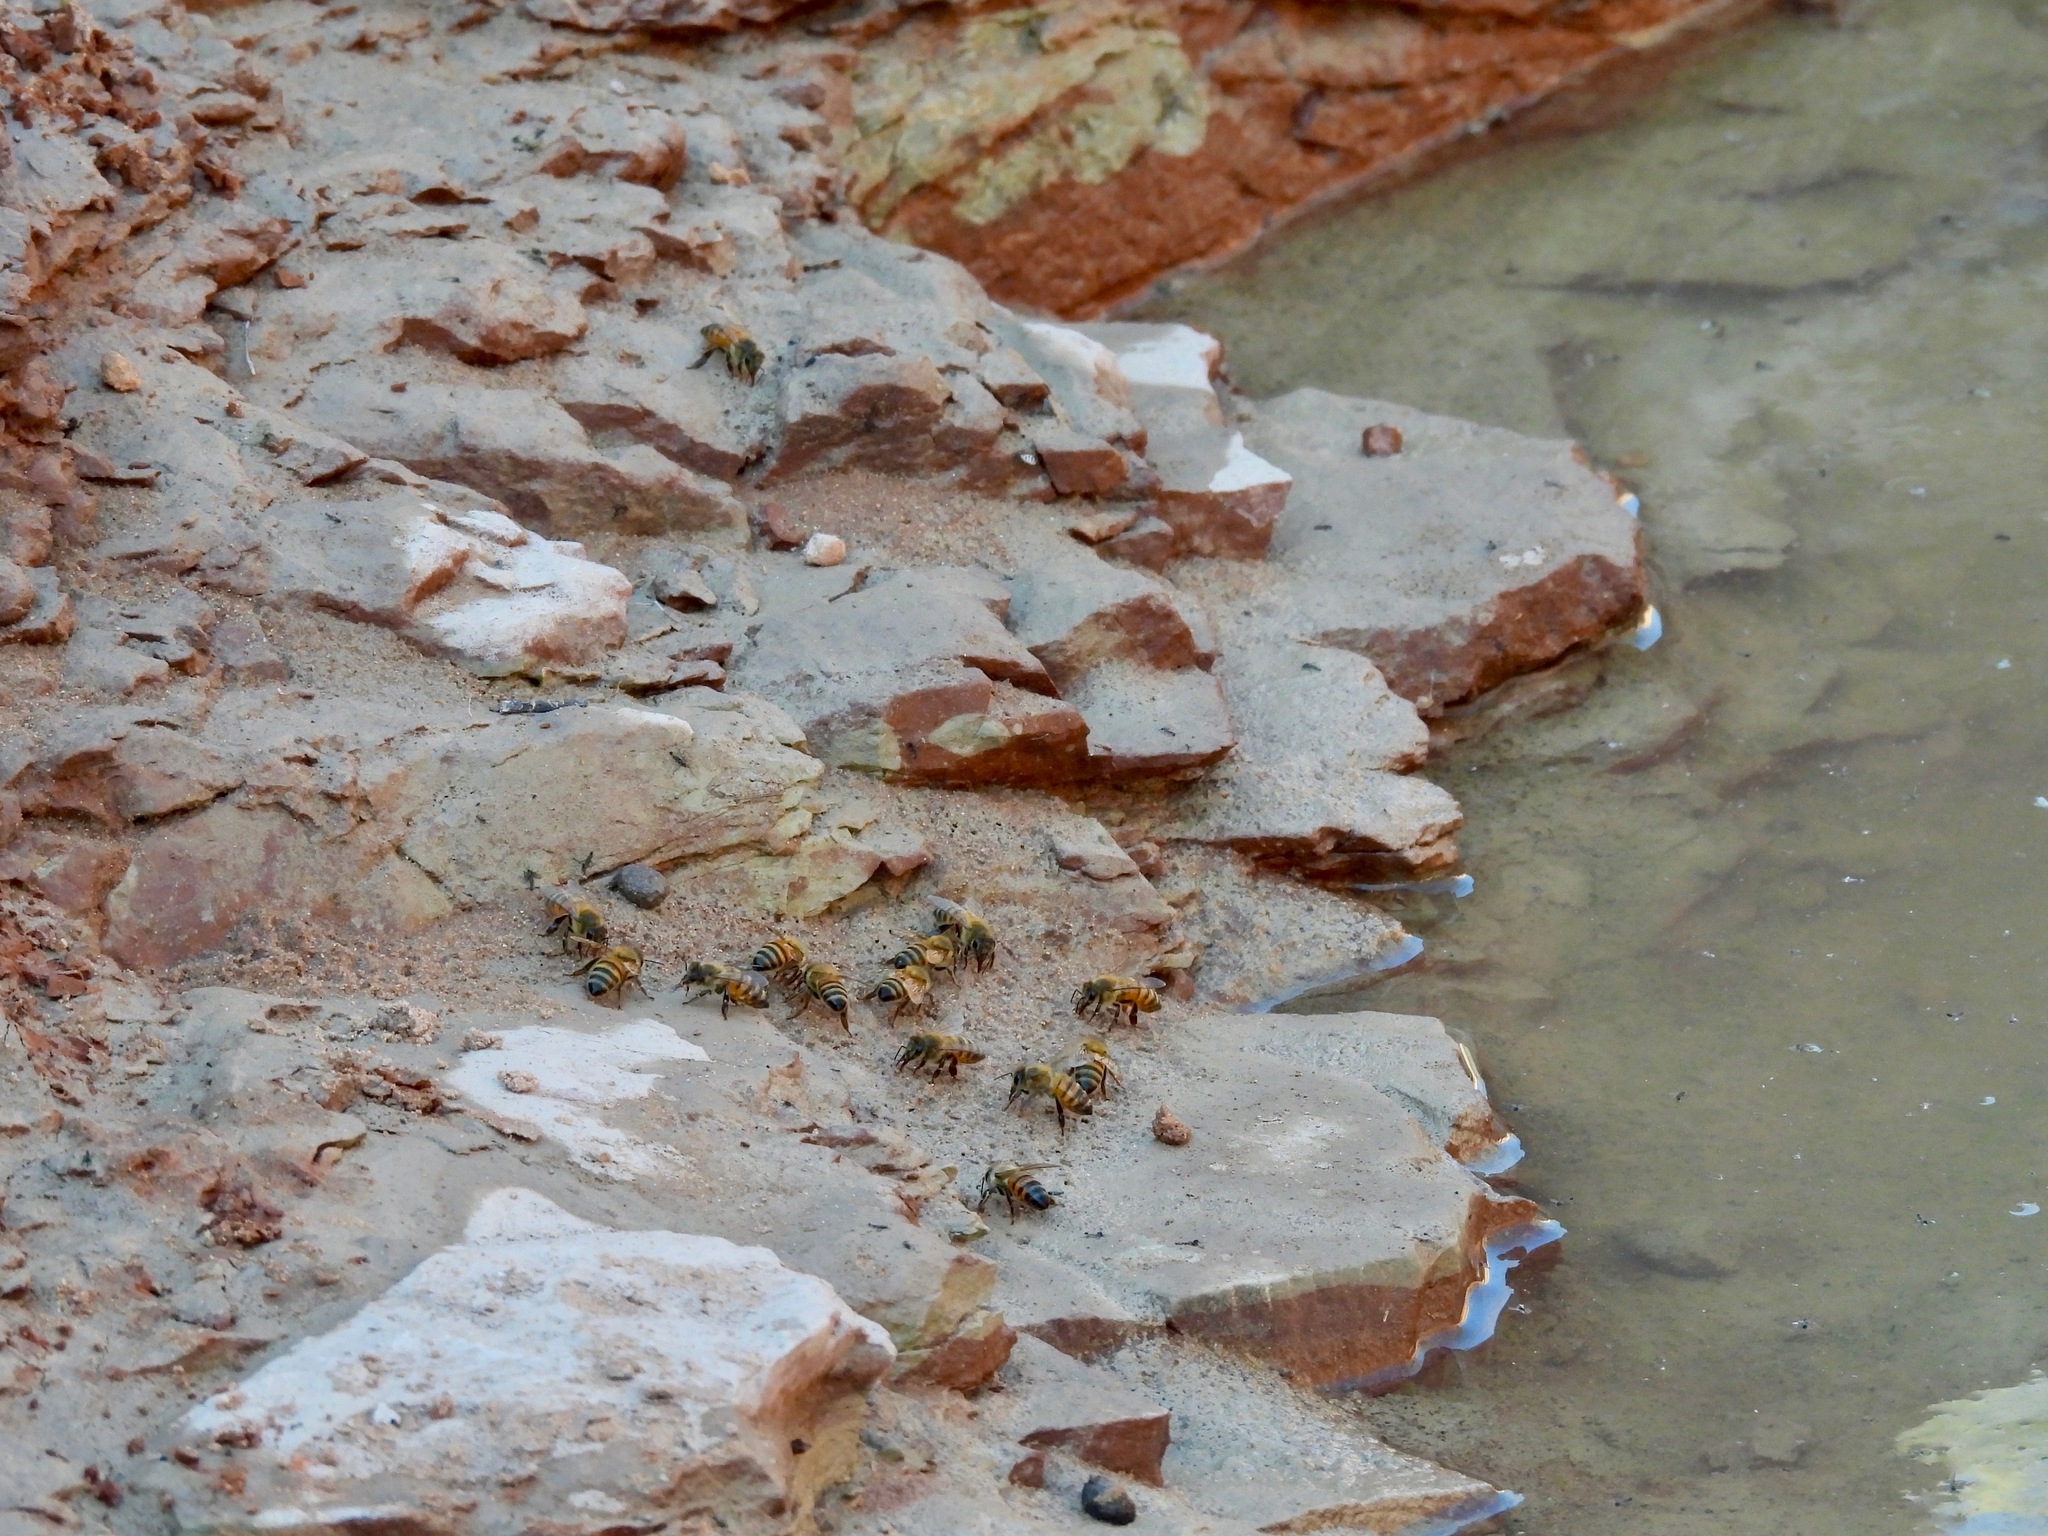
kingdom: Animalia
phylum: Arthropoda
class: Insecta
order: Hymenoptera
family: Apidae
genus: Apis
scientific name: Apis mellifera
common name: Honey bee
